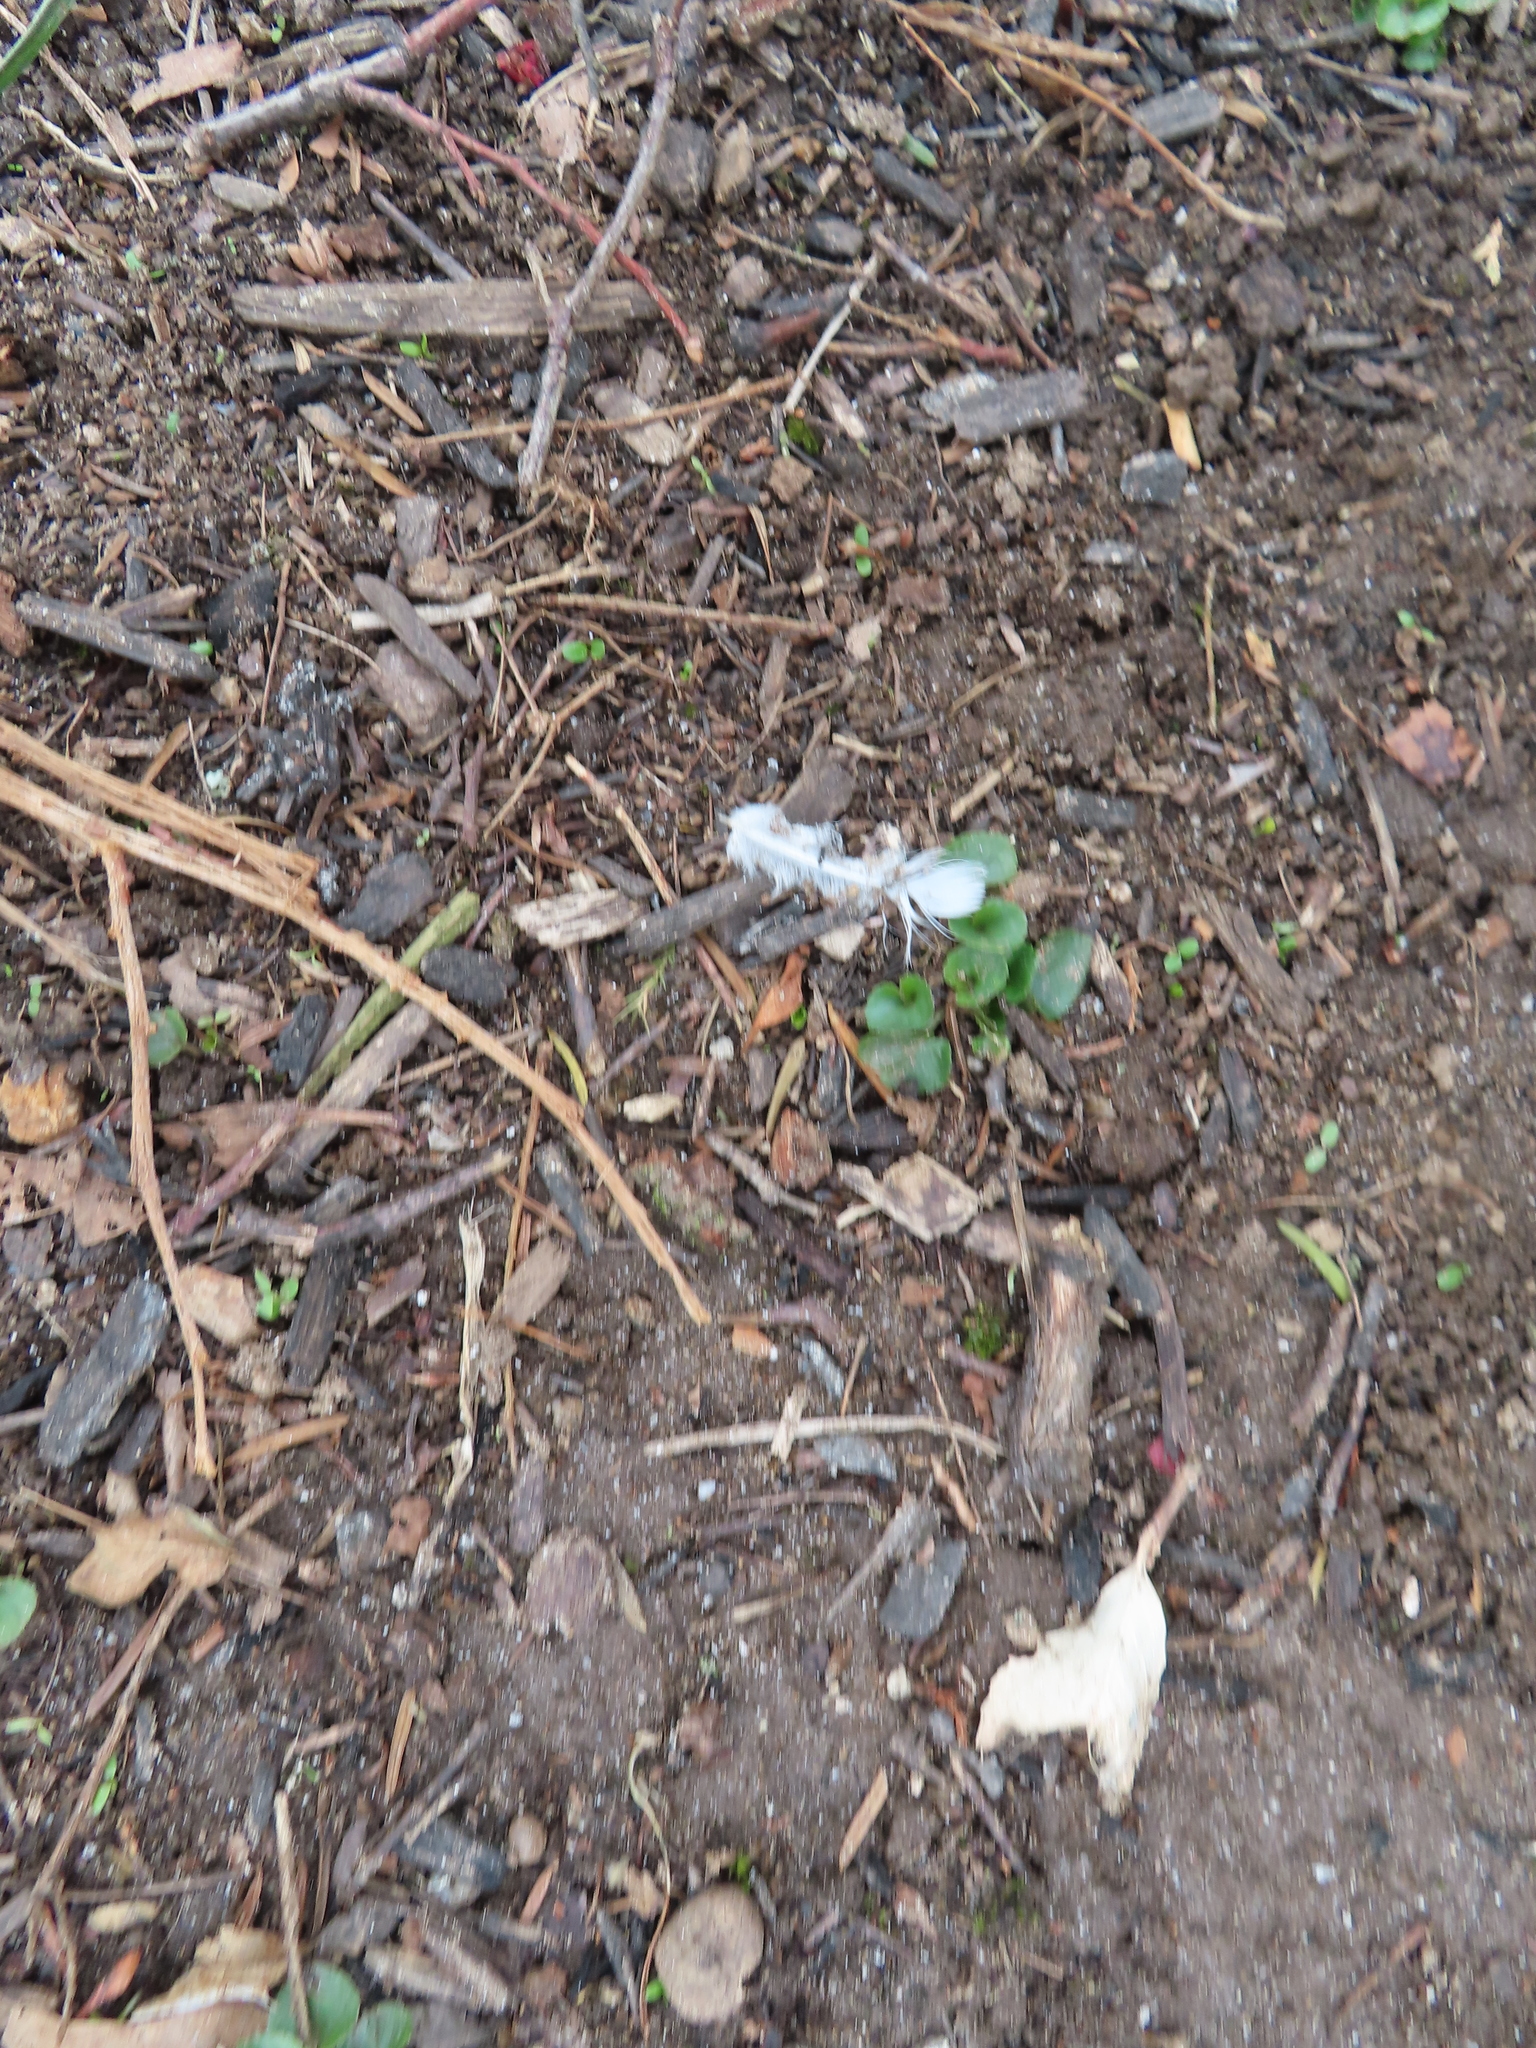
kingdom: Animalia
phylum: Chordata
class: Aves
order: Columbiformes
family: Columbidae
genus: Columba
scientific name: Columba livia
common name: Rock pigeon
